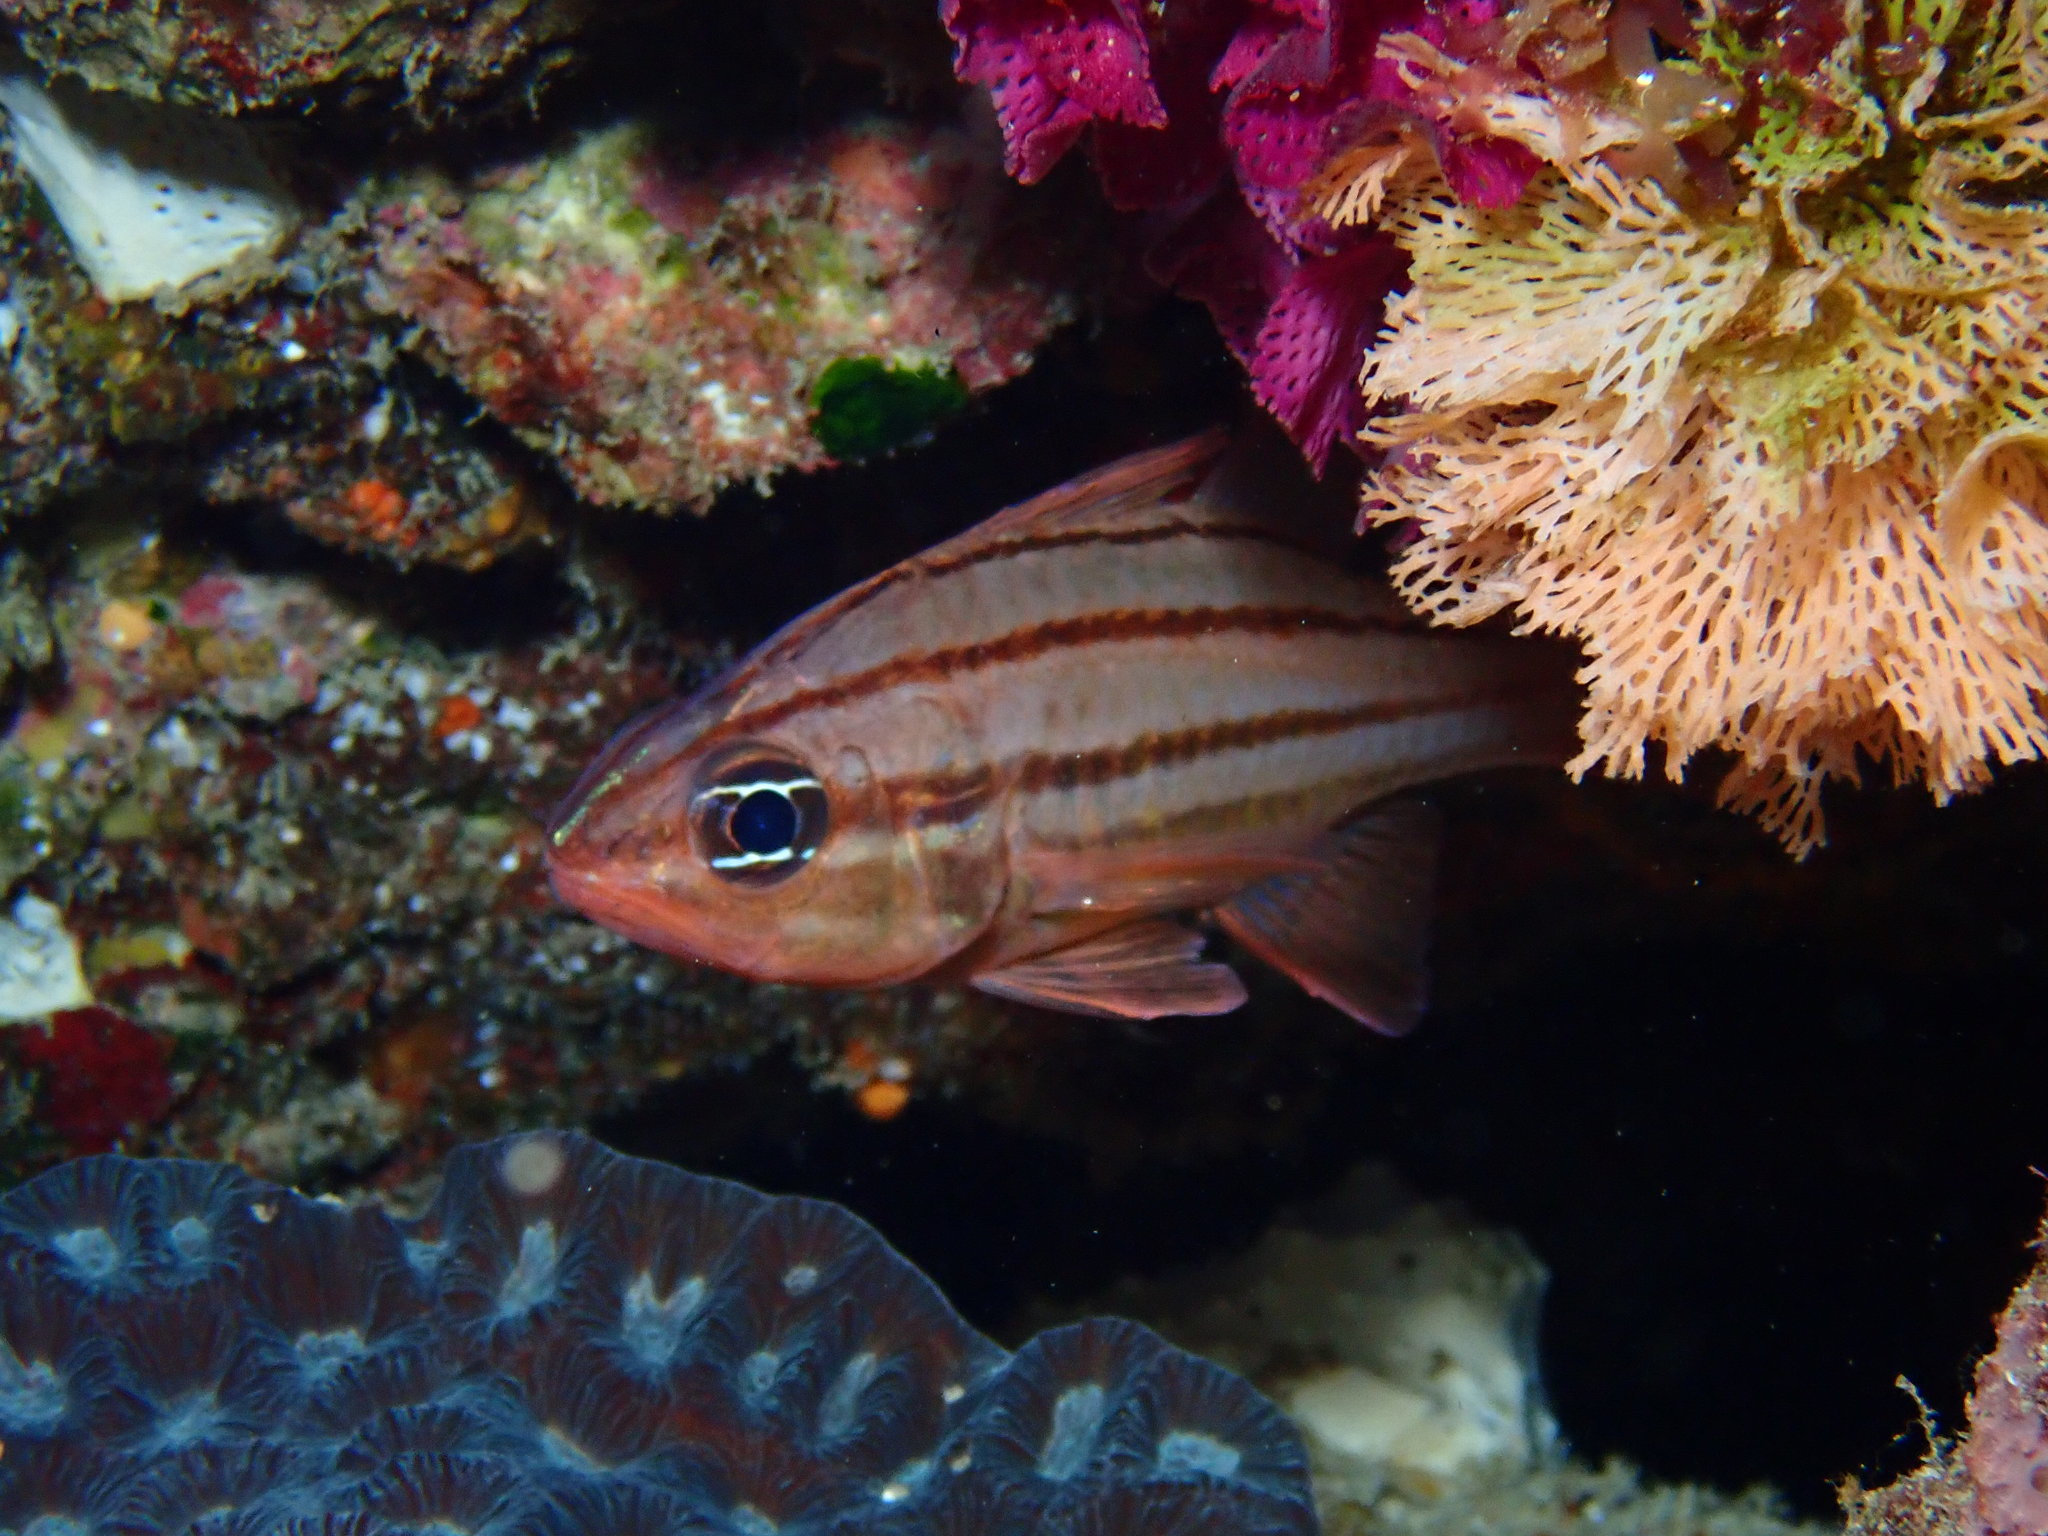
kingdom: Animalia
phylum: Chordata
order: Perciformes
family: Apogonidae
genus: Ostorhinchus
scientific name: Ostorhinchus doederleini
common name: Doederlein's cardinalfish
